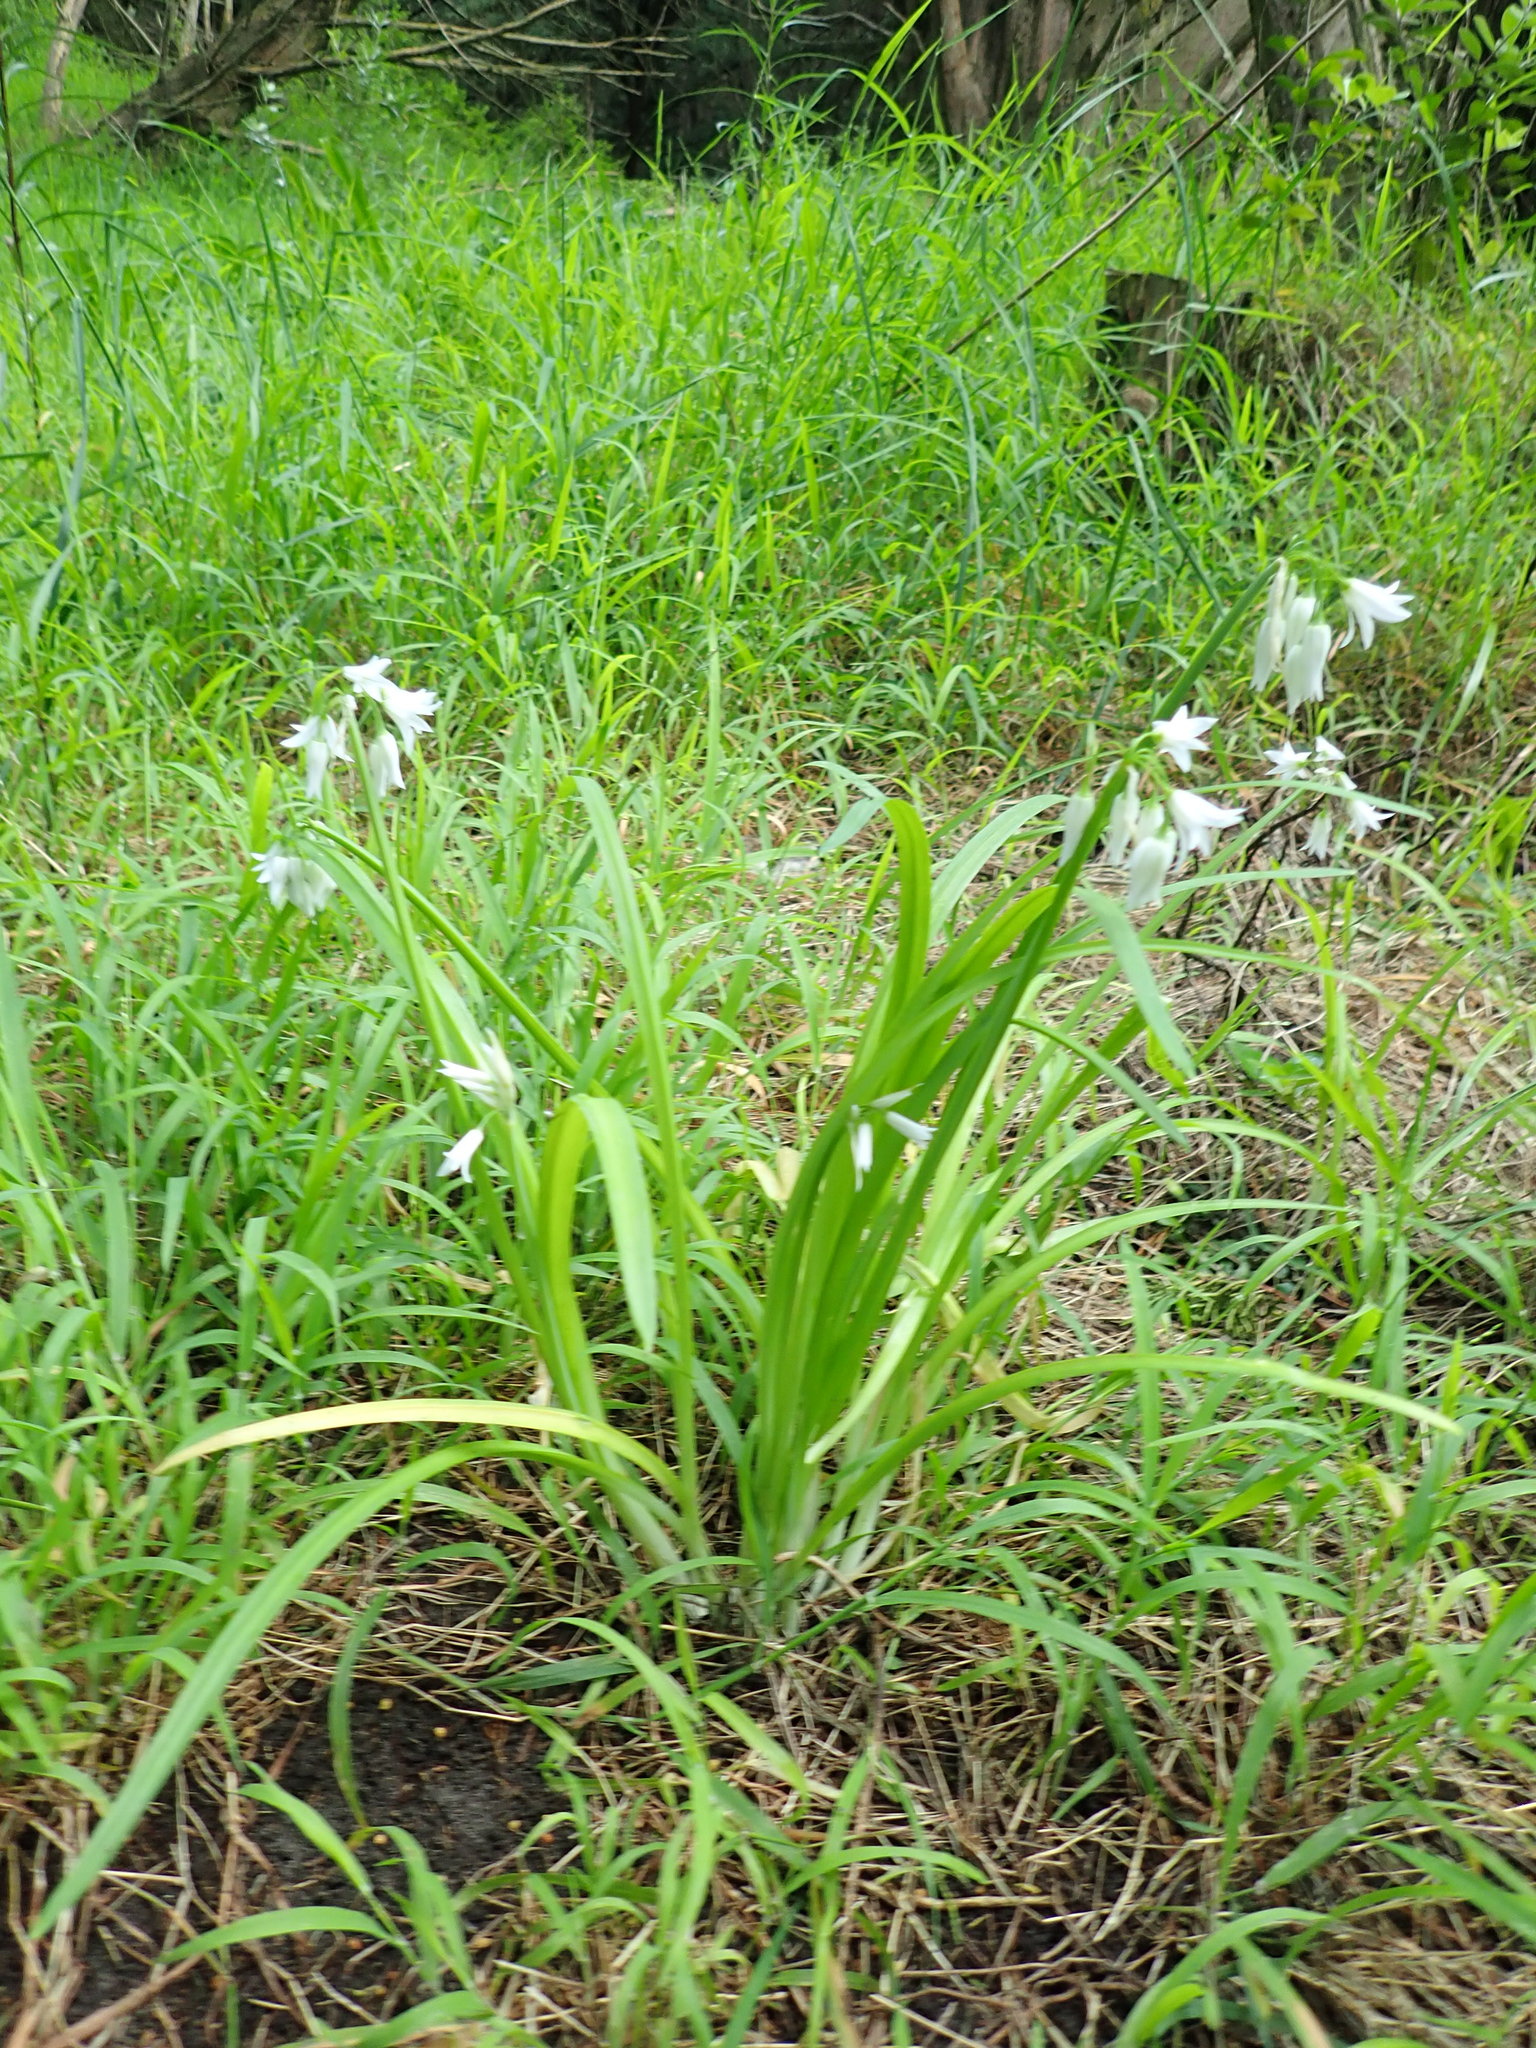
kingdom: Plantae
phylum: Tracheophyta
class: Liliopsida
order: Asparagales
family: Amaryllidaceae
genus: Allium
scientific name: Allium triquetrum
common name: Three-cornered garlic
